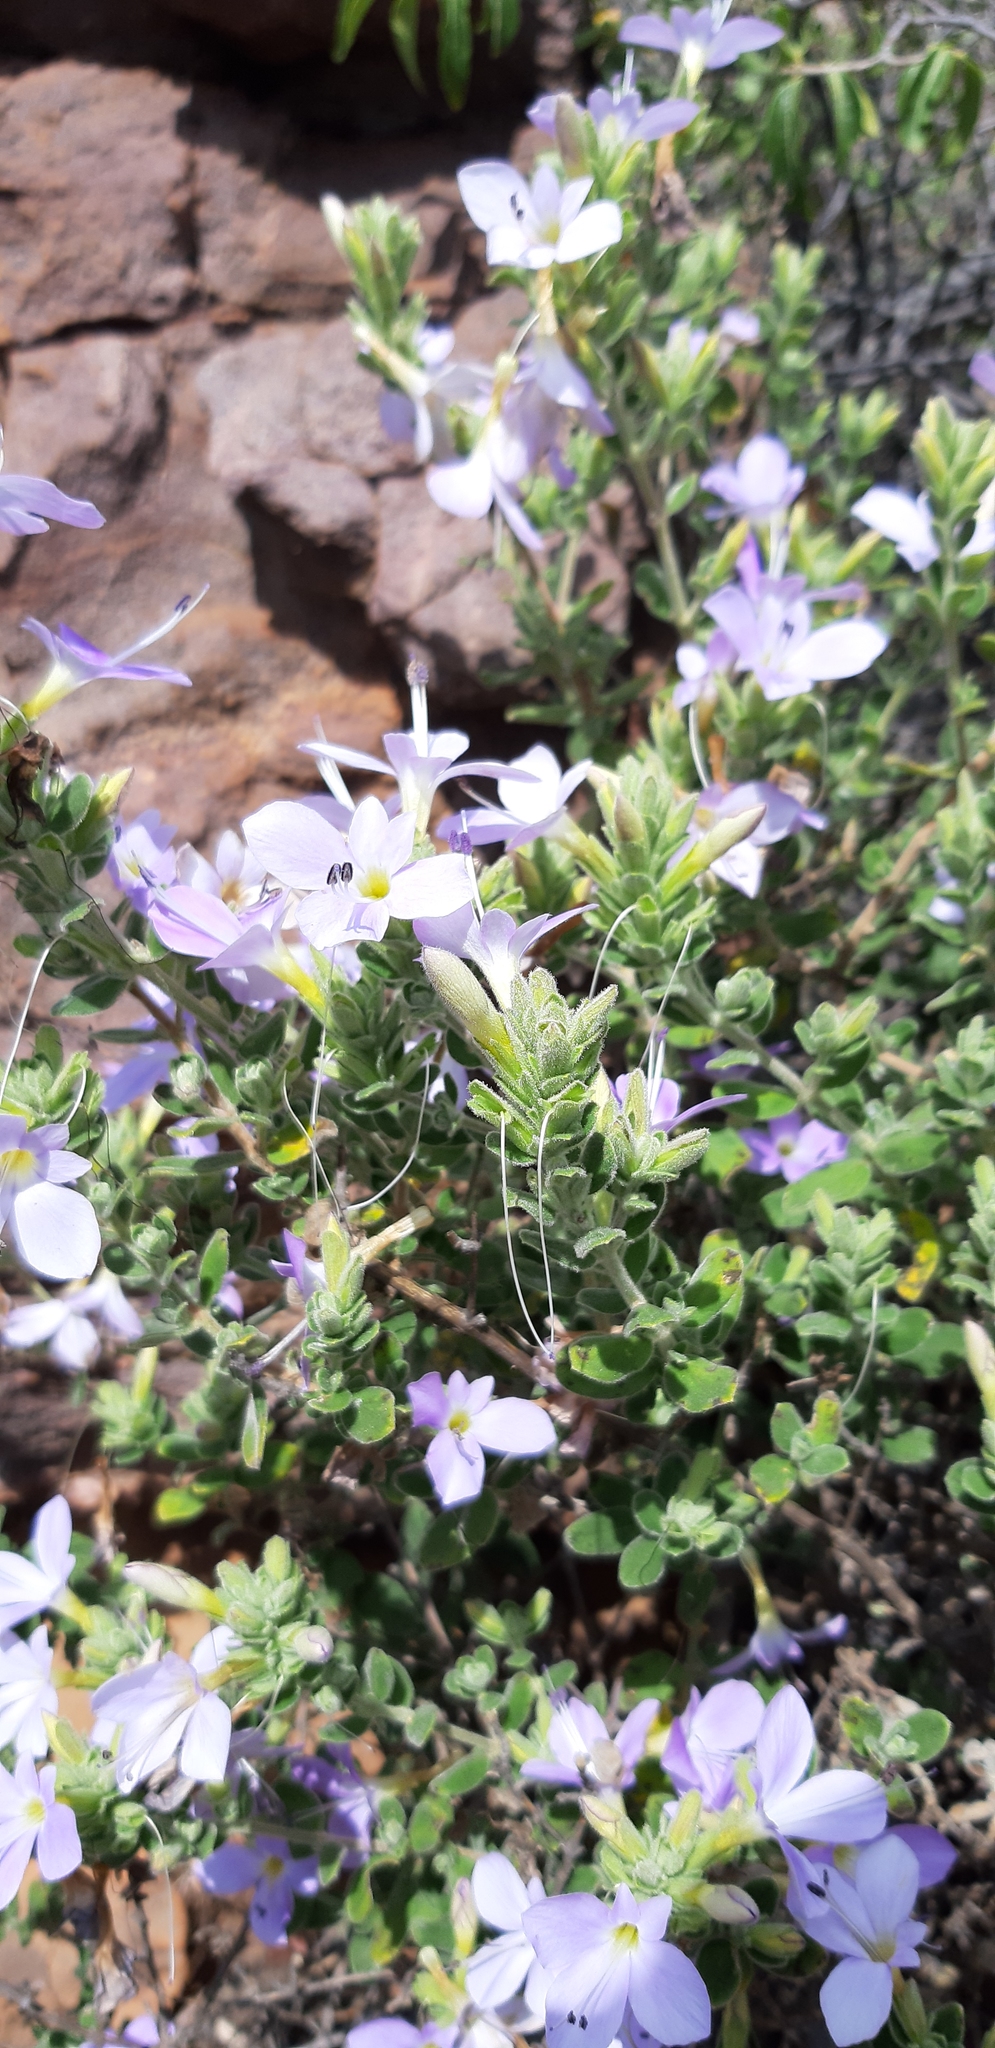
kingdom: Plantae
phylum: Tracheophyta
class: Magnoliopsida
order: Lamiales
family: Acanthaceae
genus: Barleria
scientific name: Barleria soutpansbergensis
